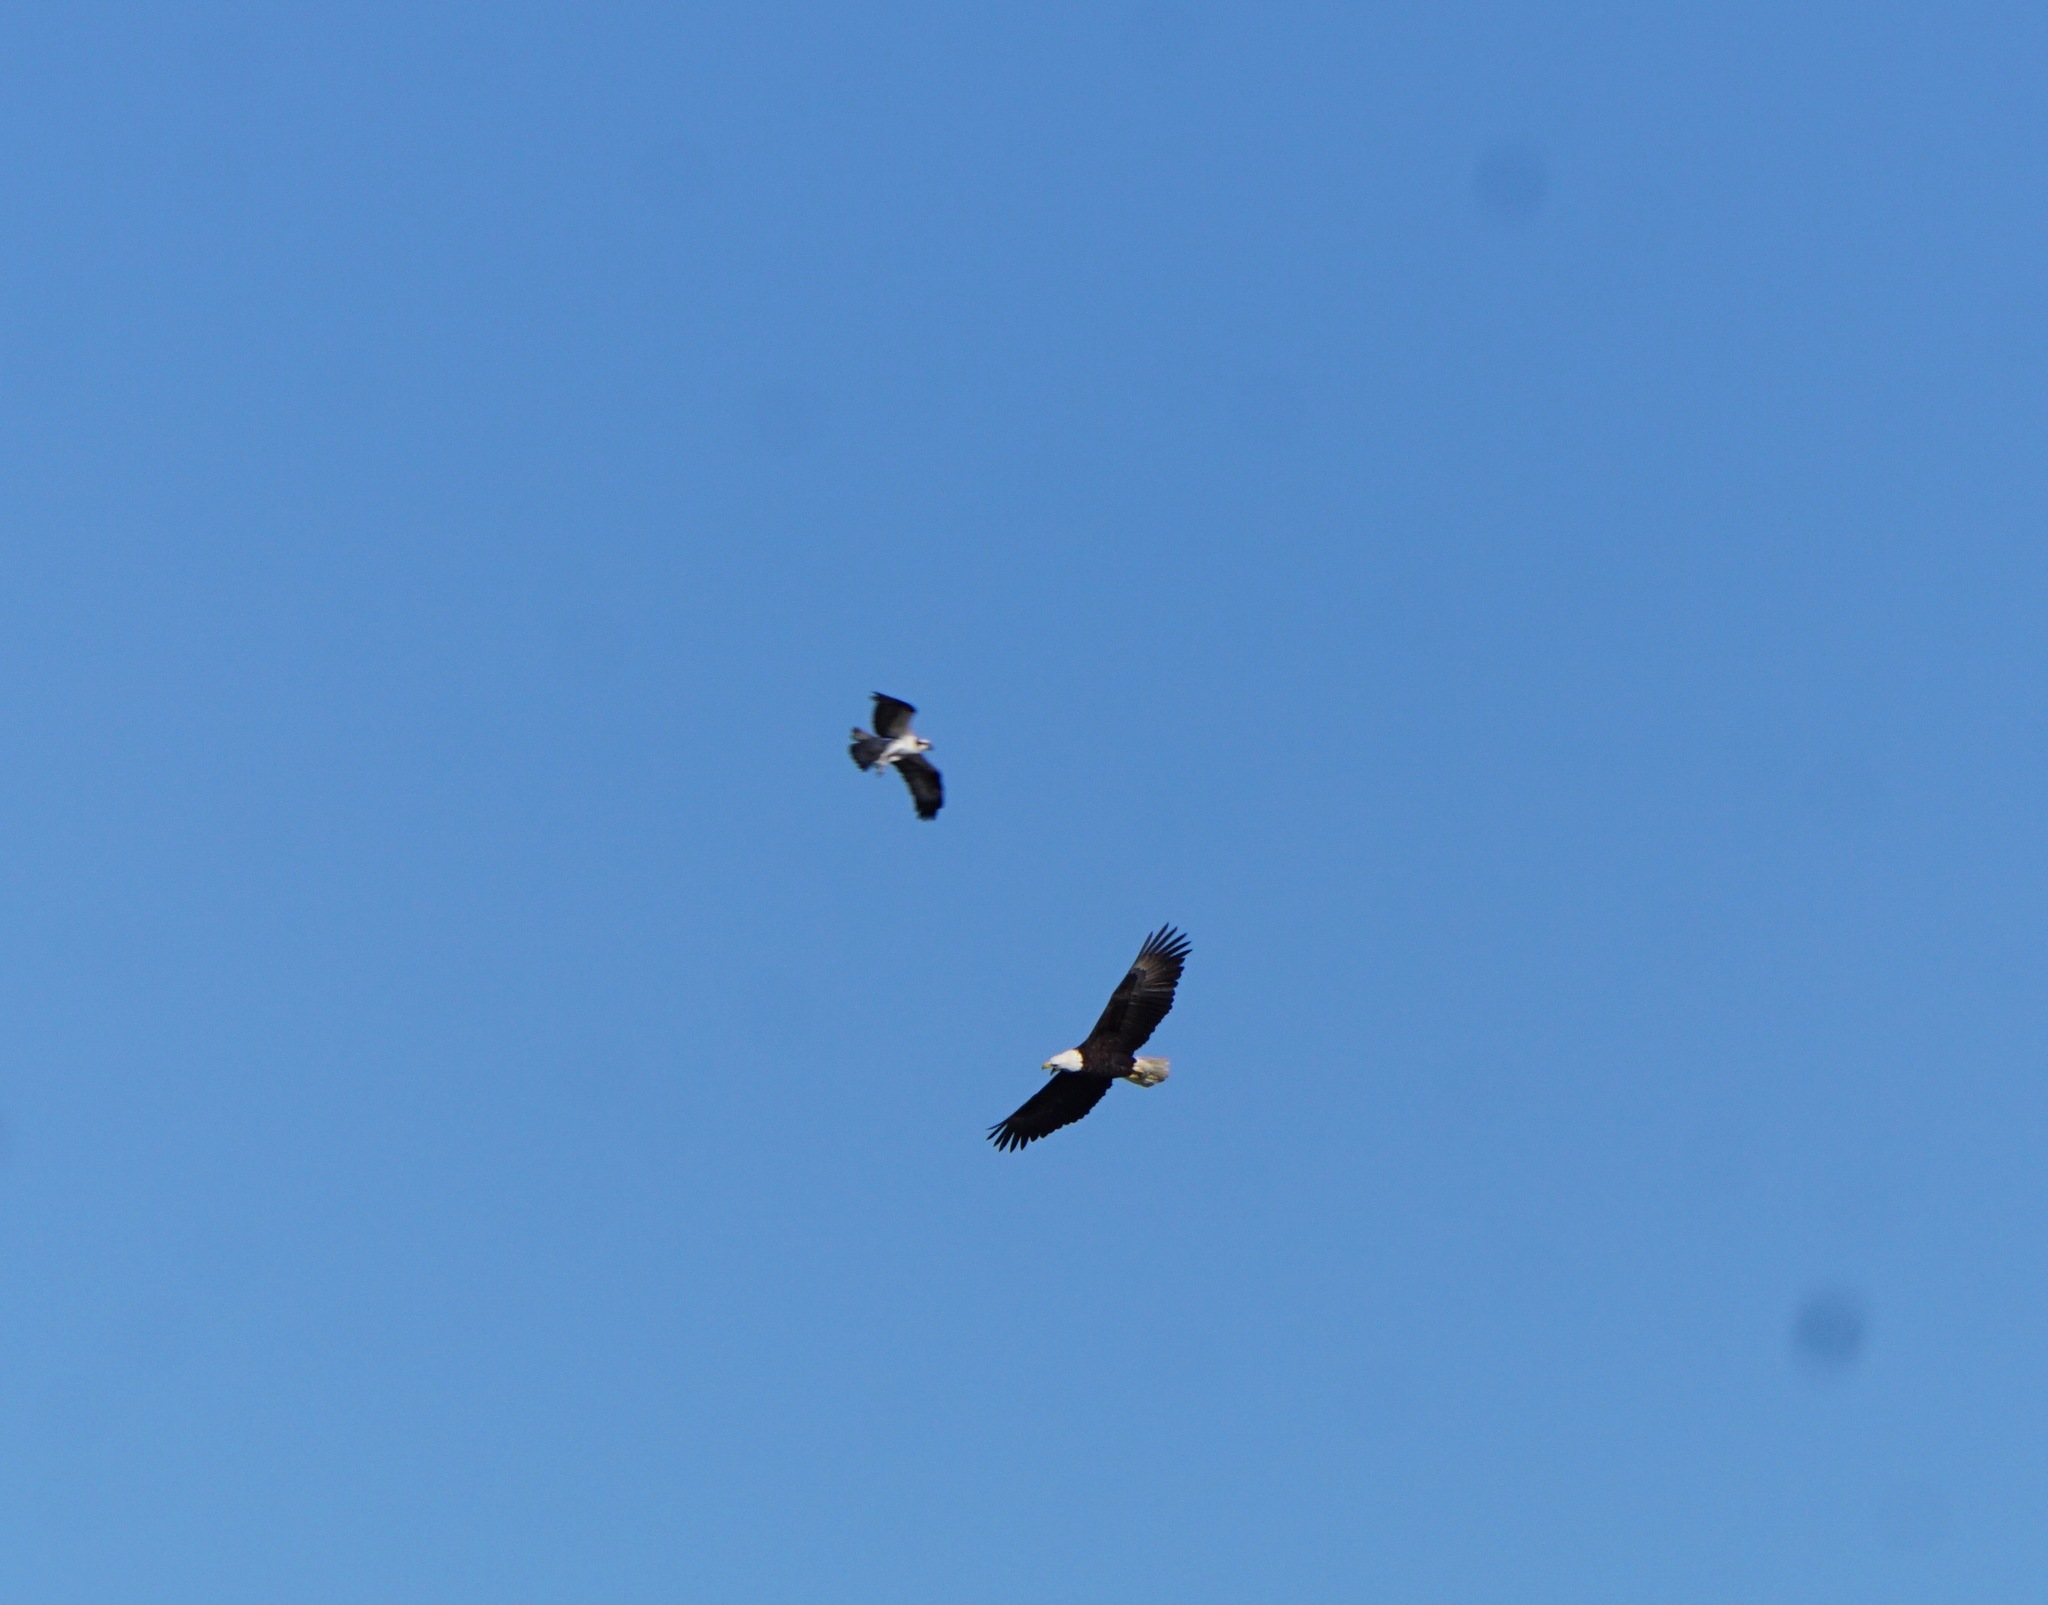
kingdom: Animalia
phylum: Chordata
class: Aves
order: Accipitriformes
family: Pandionidae
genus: Pandion
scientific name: Pandion haliaetus
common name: Osprey
